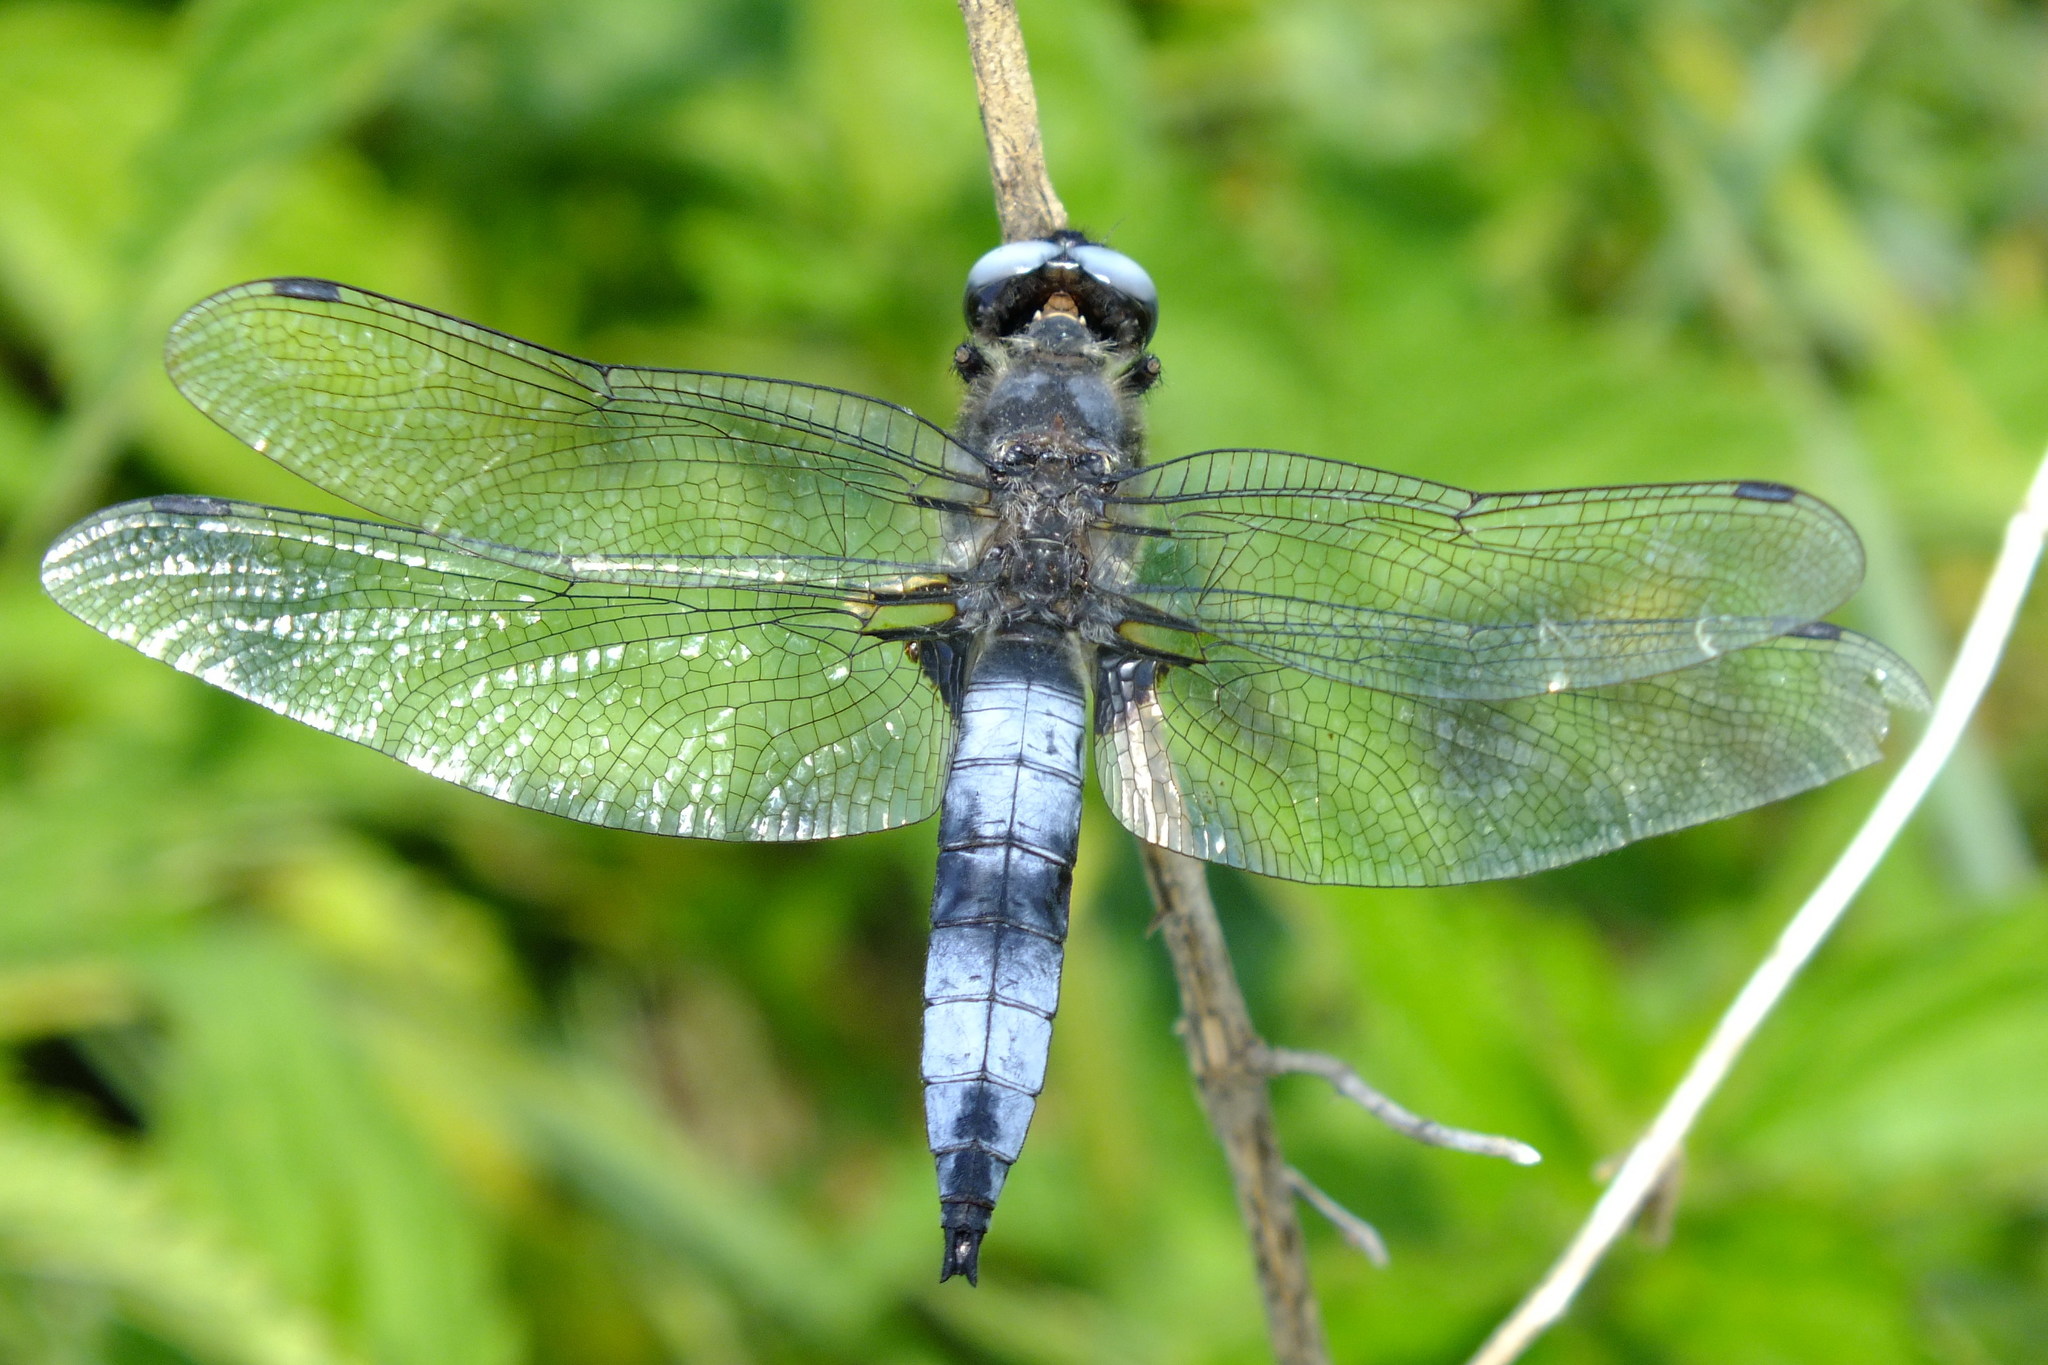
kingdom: Animalia
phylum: Arthropoda
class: Insecta
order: Odonata
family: Libellulidae
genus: Libellula
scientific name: Libellula fulva
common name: Blue chaser
